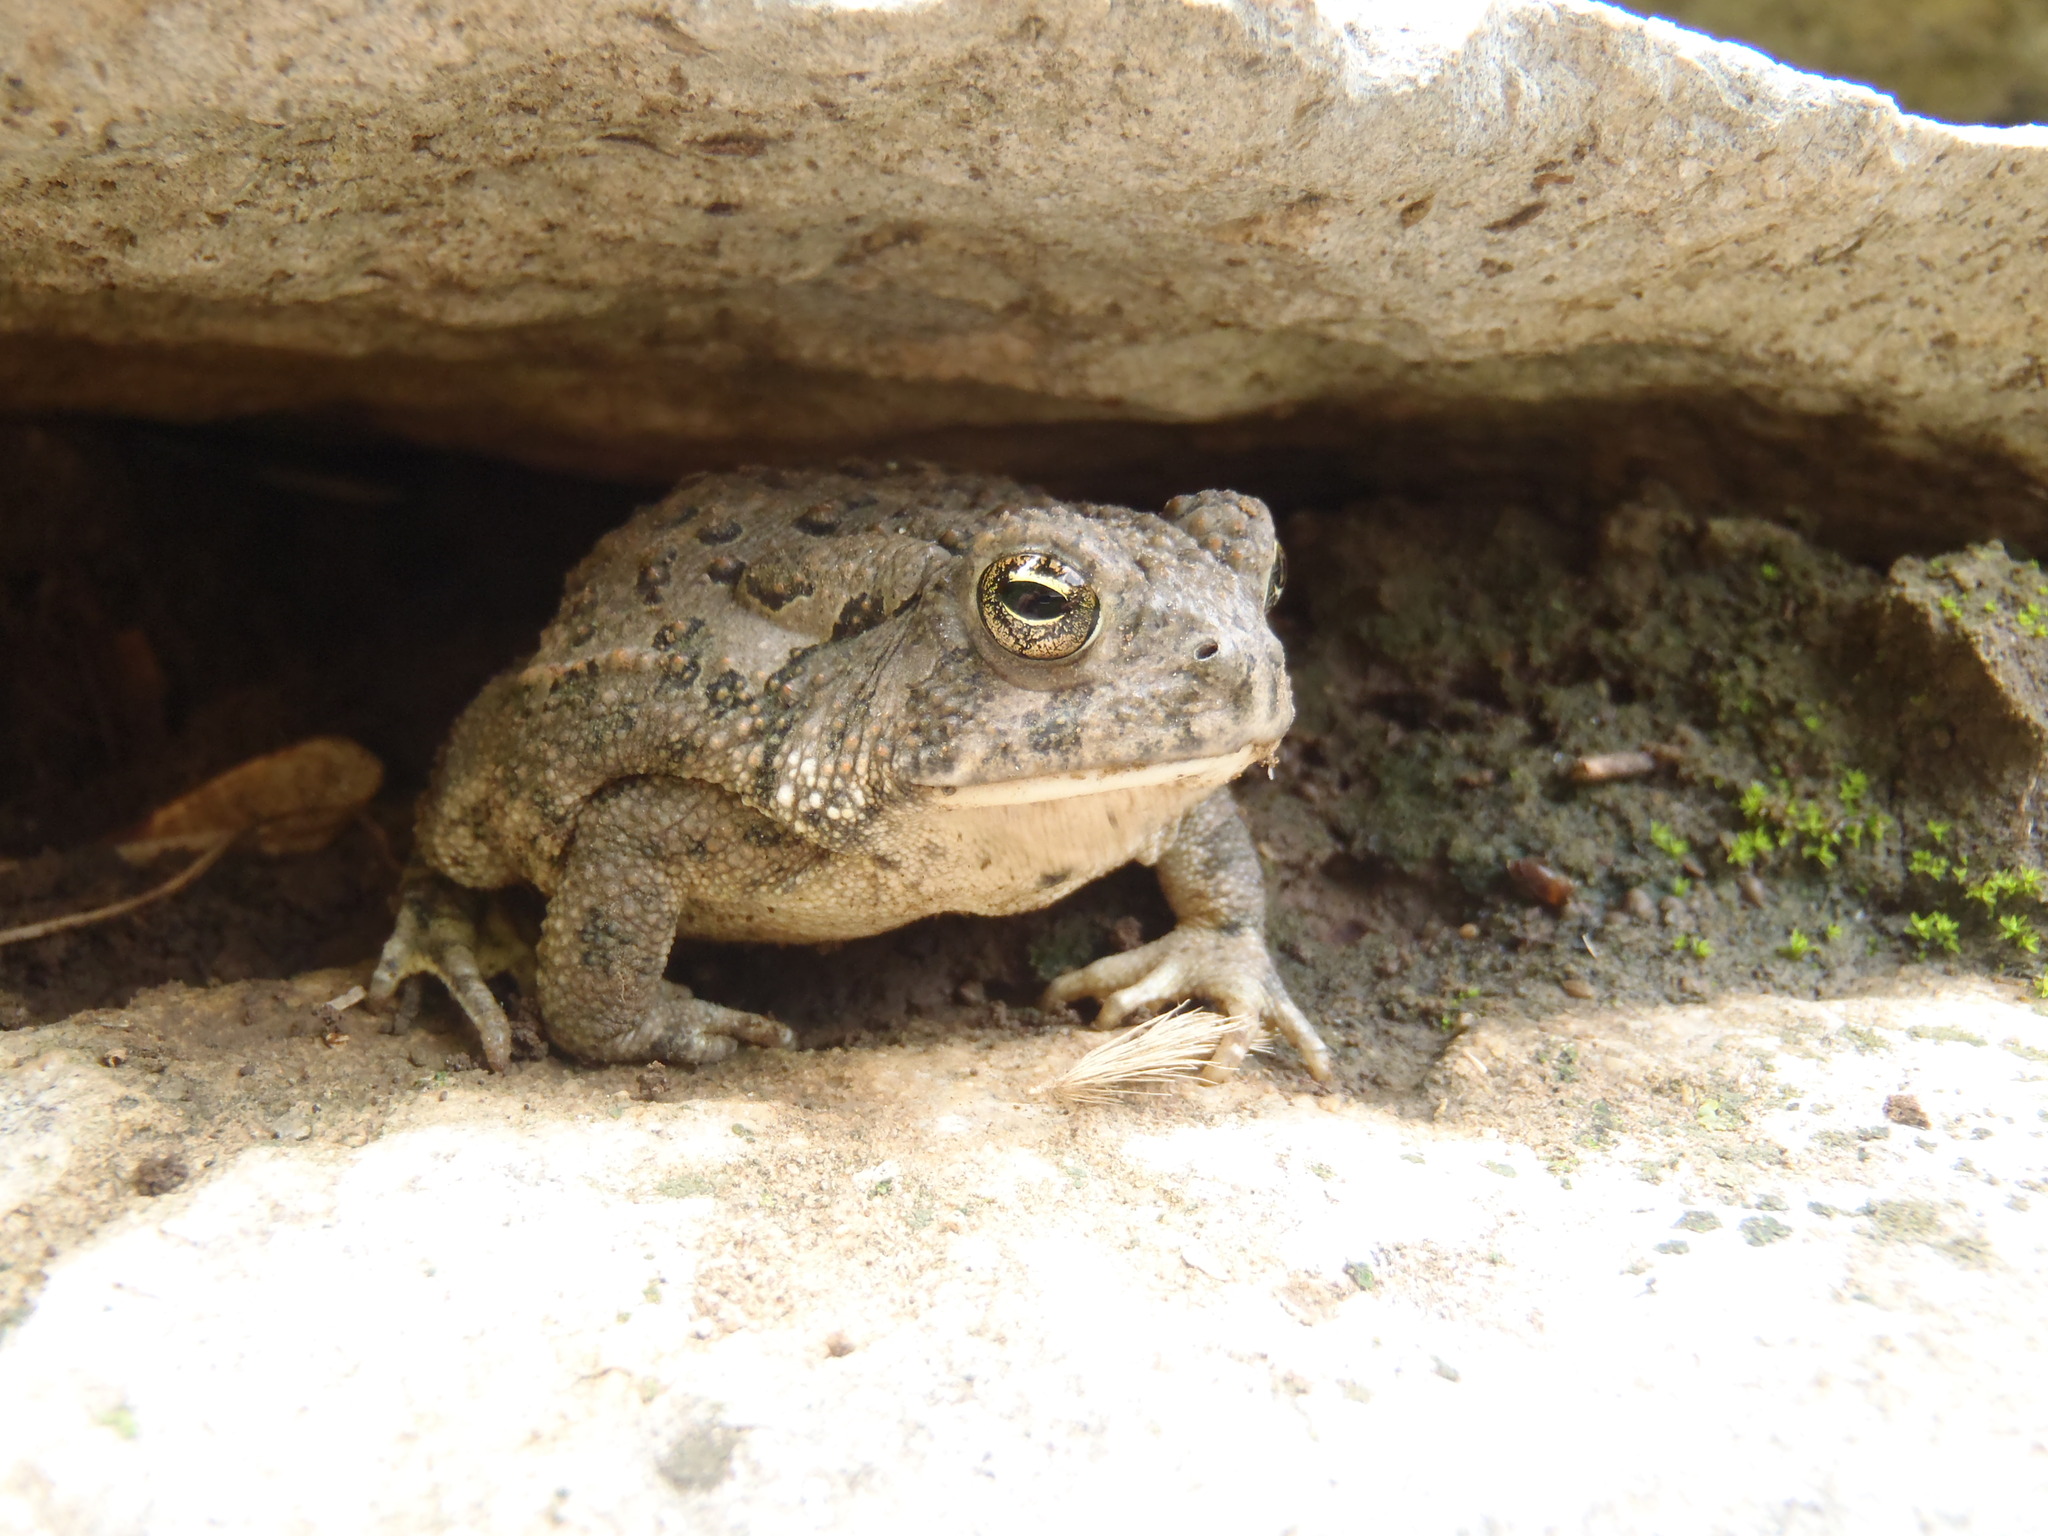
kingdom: Animalia
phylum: Chordata
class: Amphibia
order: Anura
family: Bufonidae
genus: Anaxyrus
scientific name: Anaxyrus woodhousii
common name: Woodhouse's toad
